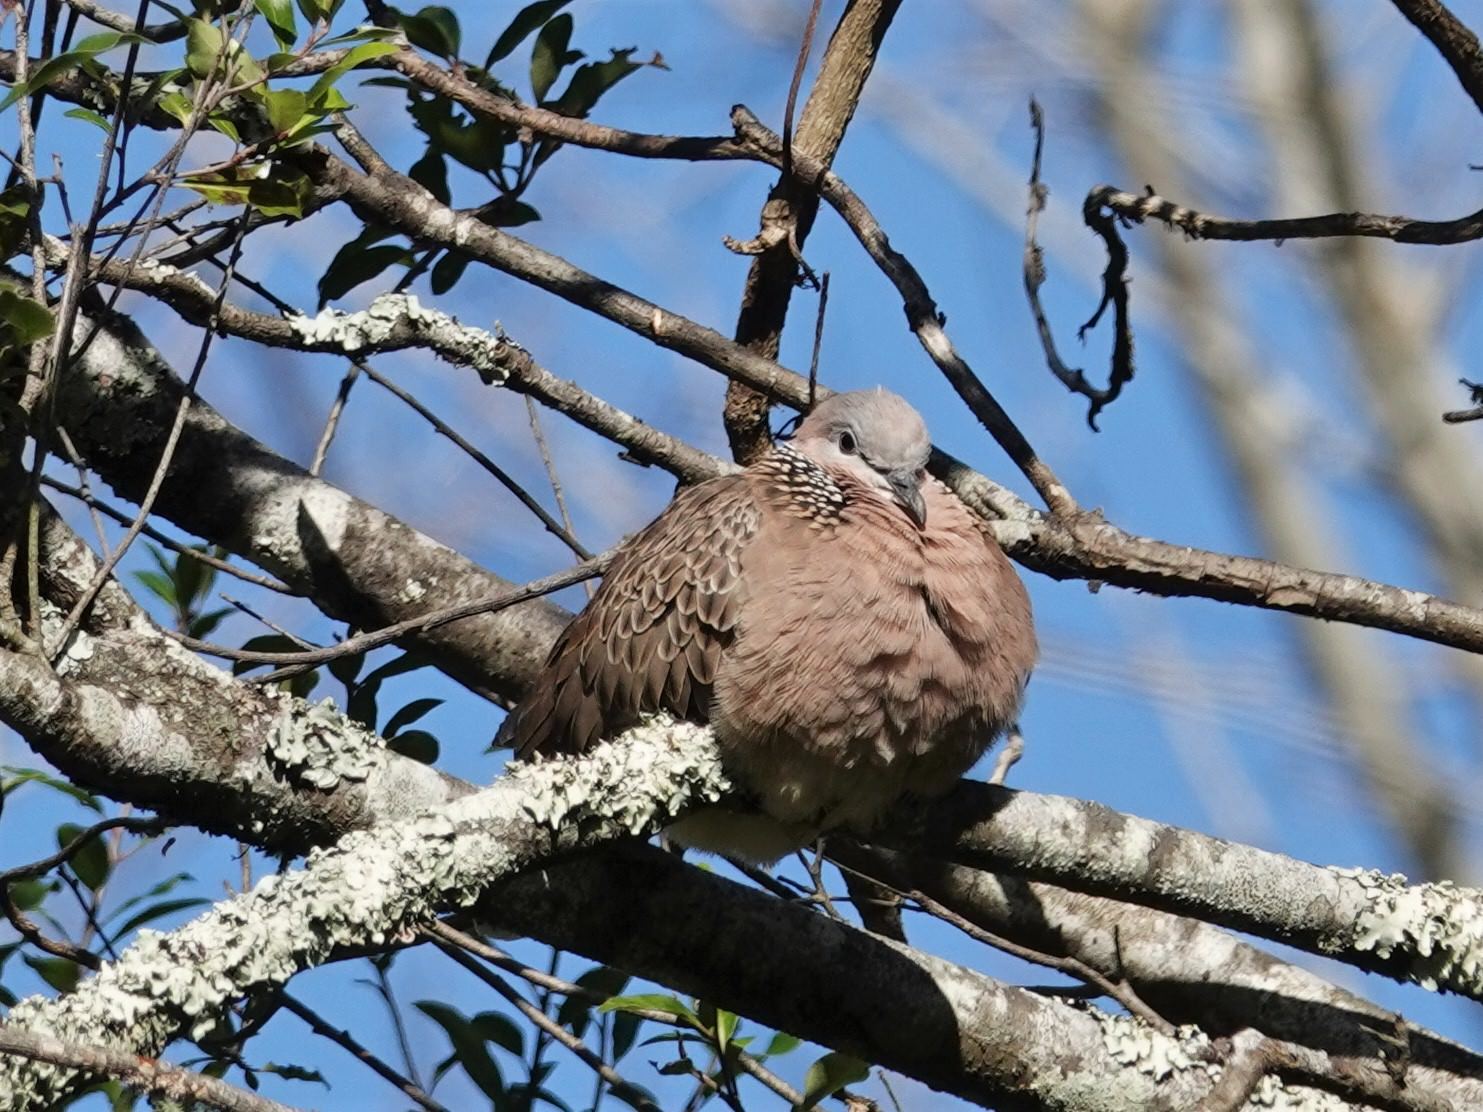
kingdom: Animalia
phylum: Chordata
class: Aves
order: Columbiformes
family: Columbidae
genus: Spilopelia
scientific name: Spilopelia chinensis
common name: Spotted dove
